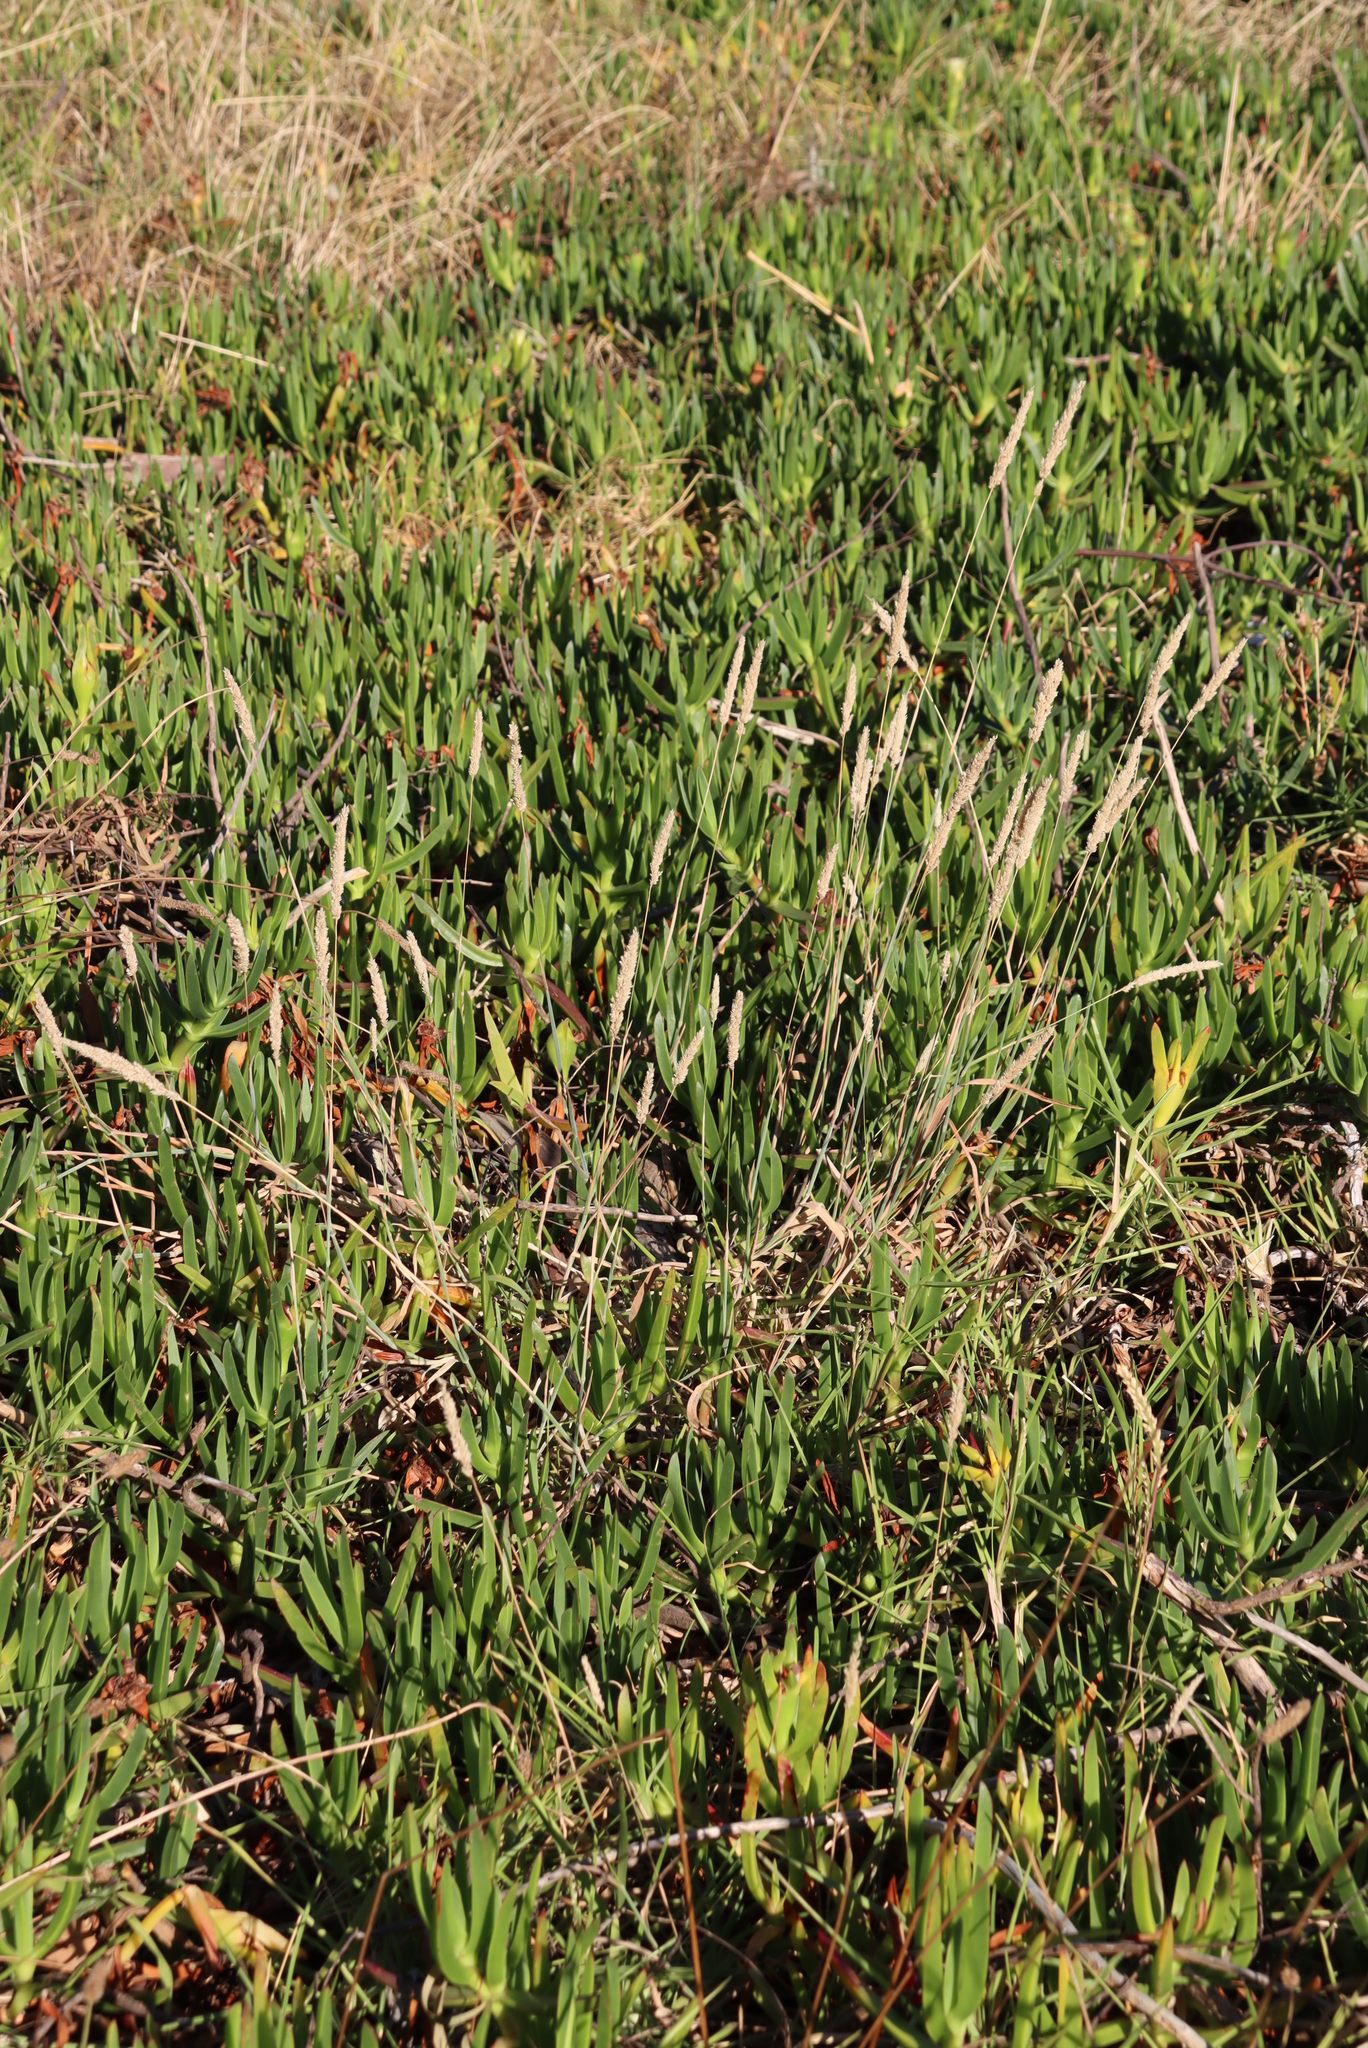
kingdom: Plantae
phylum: Tracheophyta
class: Magnoliopsida
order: Caryophyllales
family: Aizoaceae
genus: Carpobrotus
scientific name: Carpobrotus edulis
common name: Hottentot-fig
